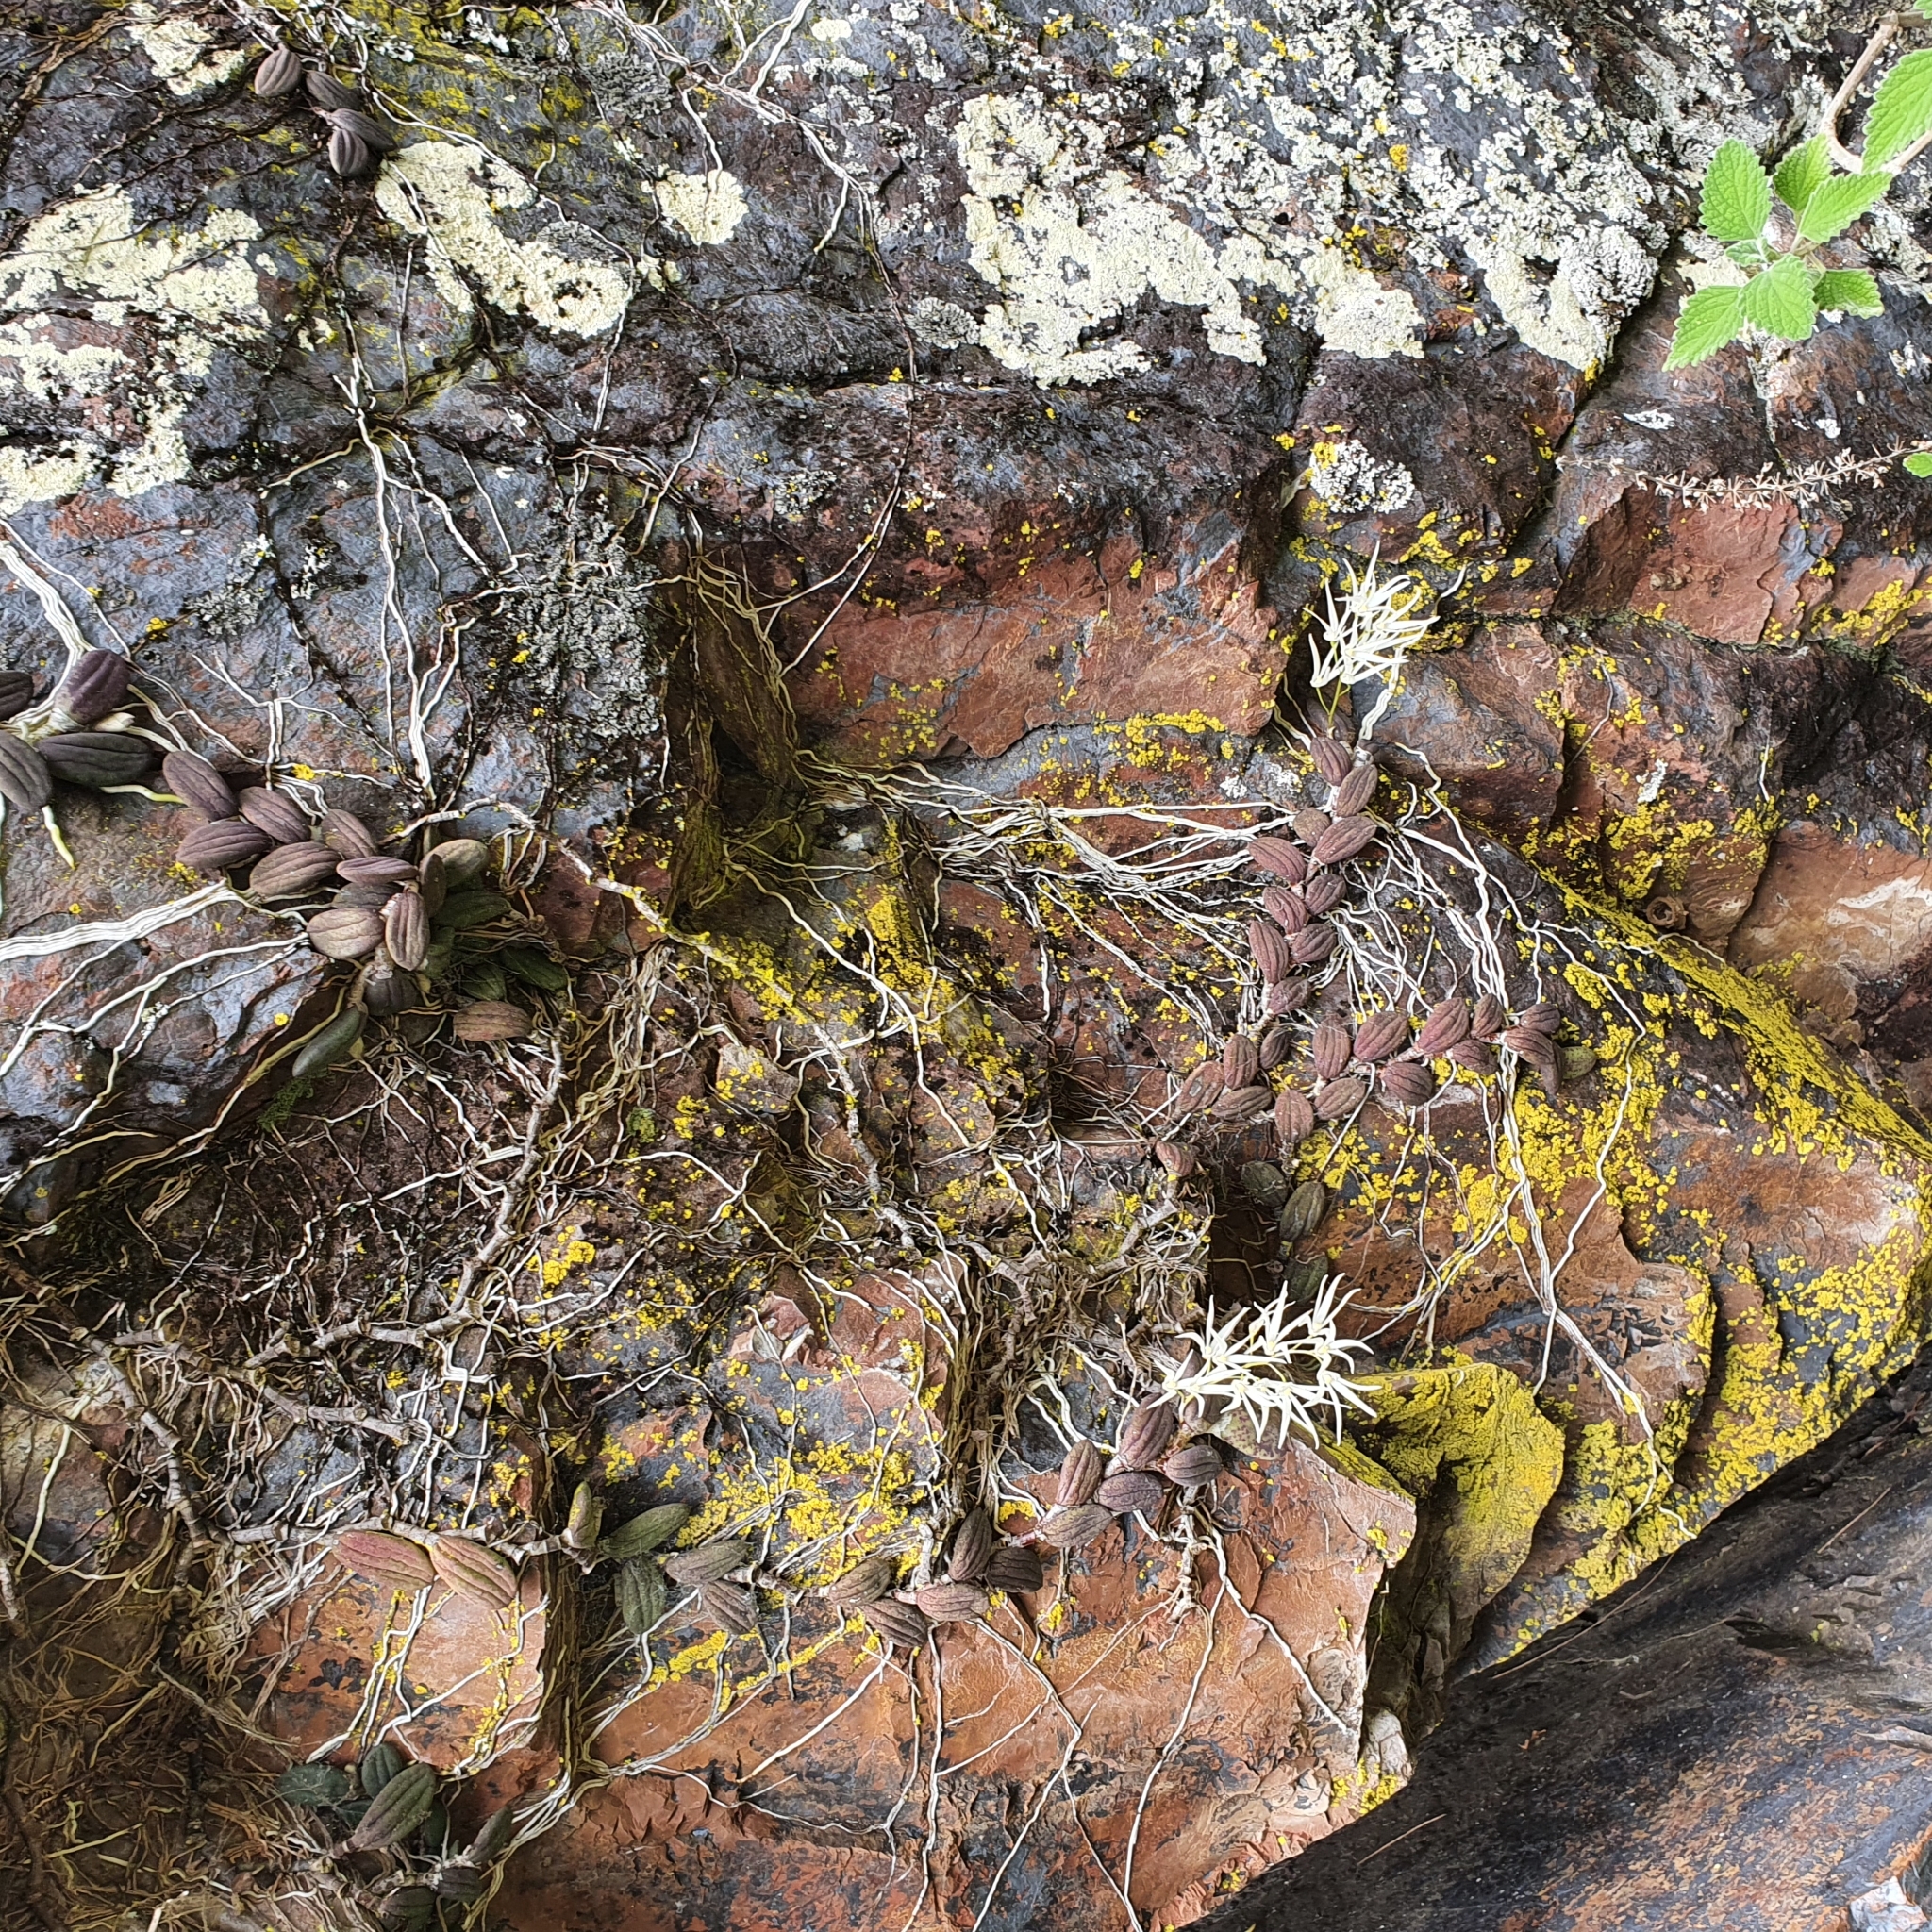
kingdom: Plantae
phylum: Tracheophyta
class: Liliopsida
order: Asparagales
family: Orchidaceae
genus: Dendrobium
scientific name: Dendrobium linguiforme
